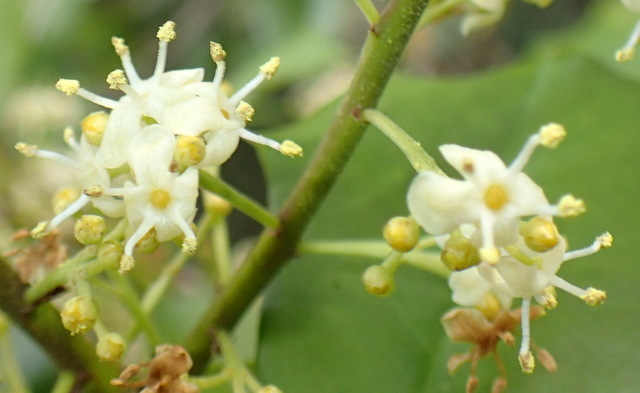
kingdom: Plantae
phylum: Tracheophyta
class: Magnoliopsida
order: Aquifoliales
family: Aquifoliaceae
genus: Ilex
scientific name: Ilex opaca
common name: American holly
